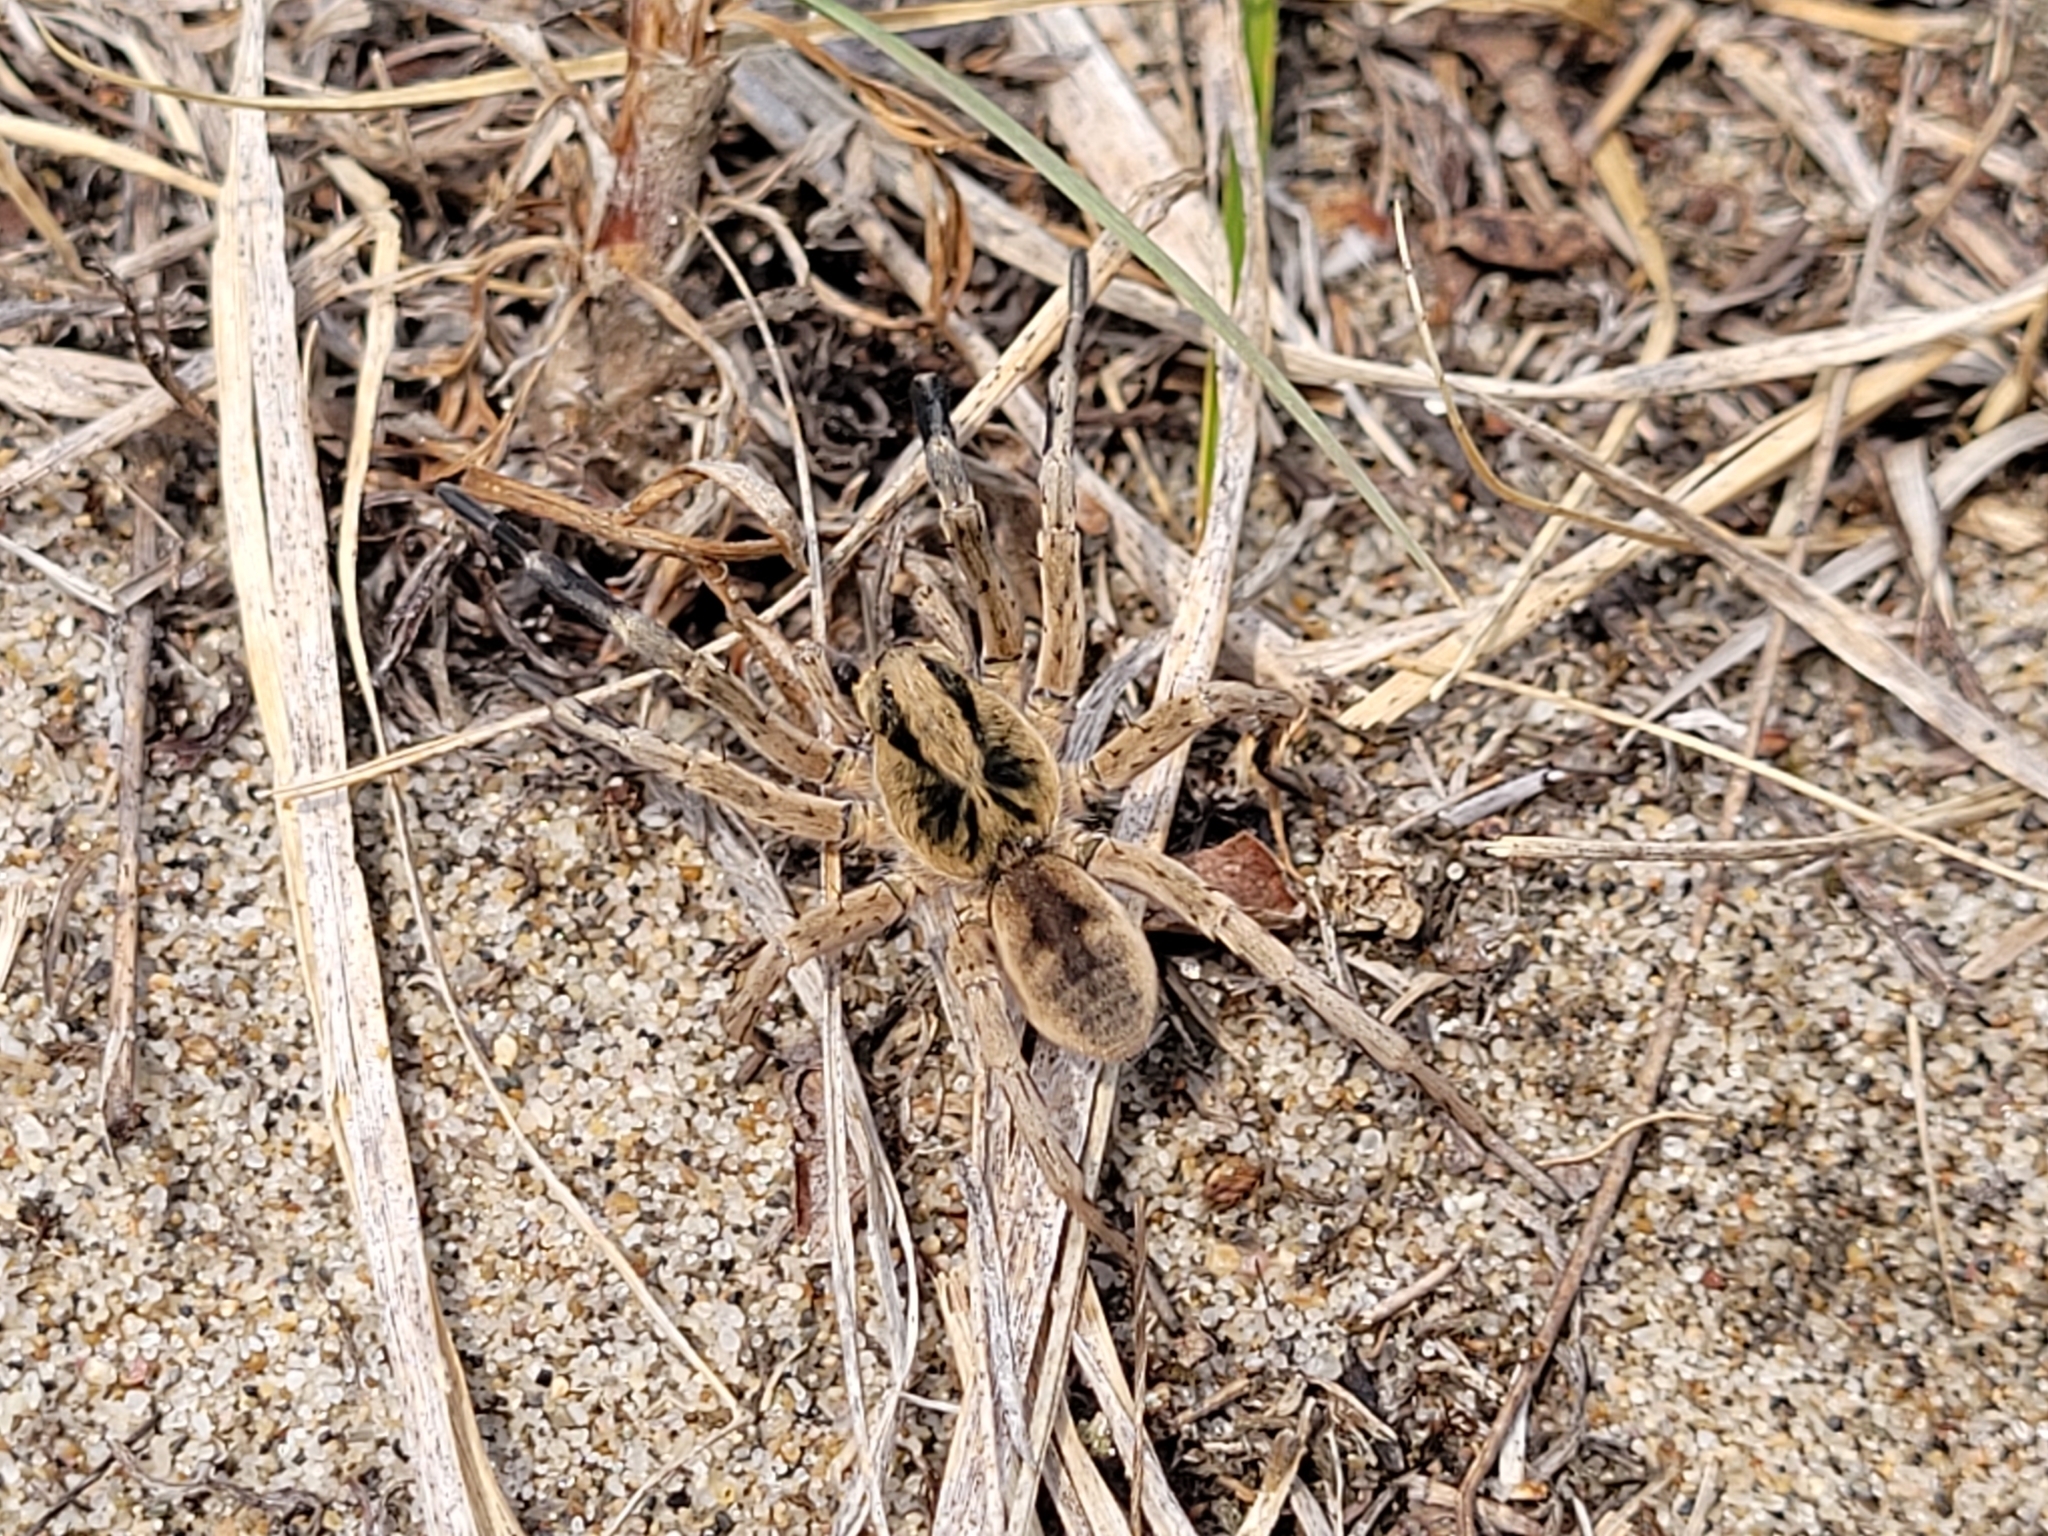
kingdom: Animalia
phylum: Arthropoda
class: Arachnida
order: Araneae
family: Lycosidae
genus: Geolycosa
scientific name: Geolycosa missouriensis
